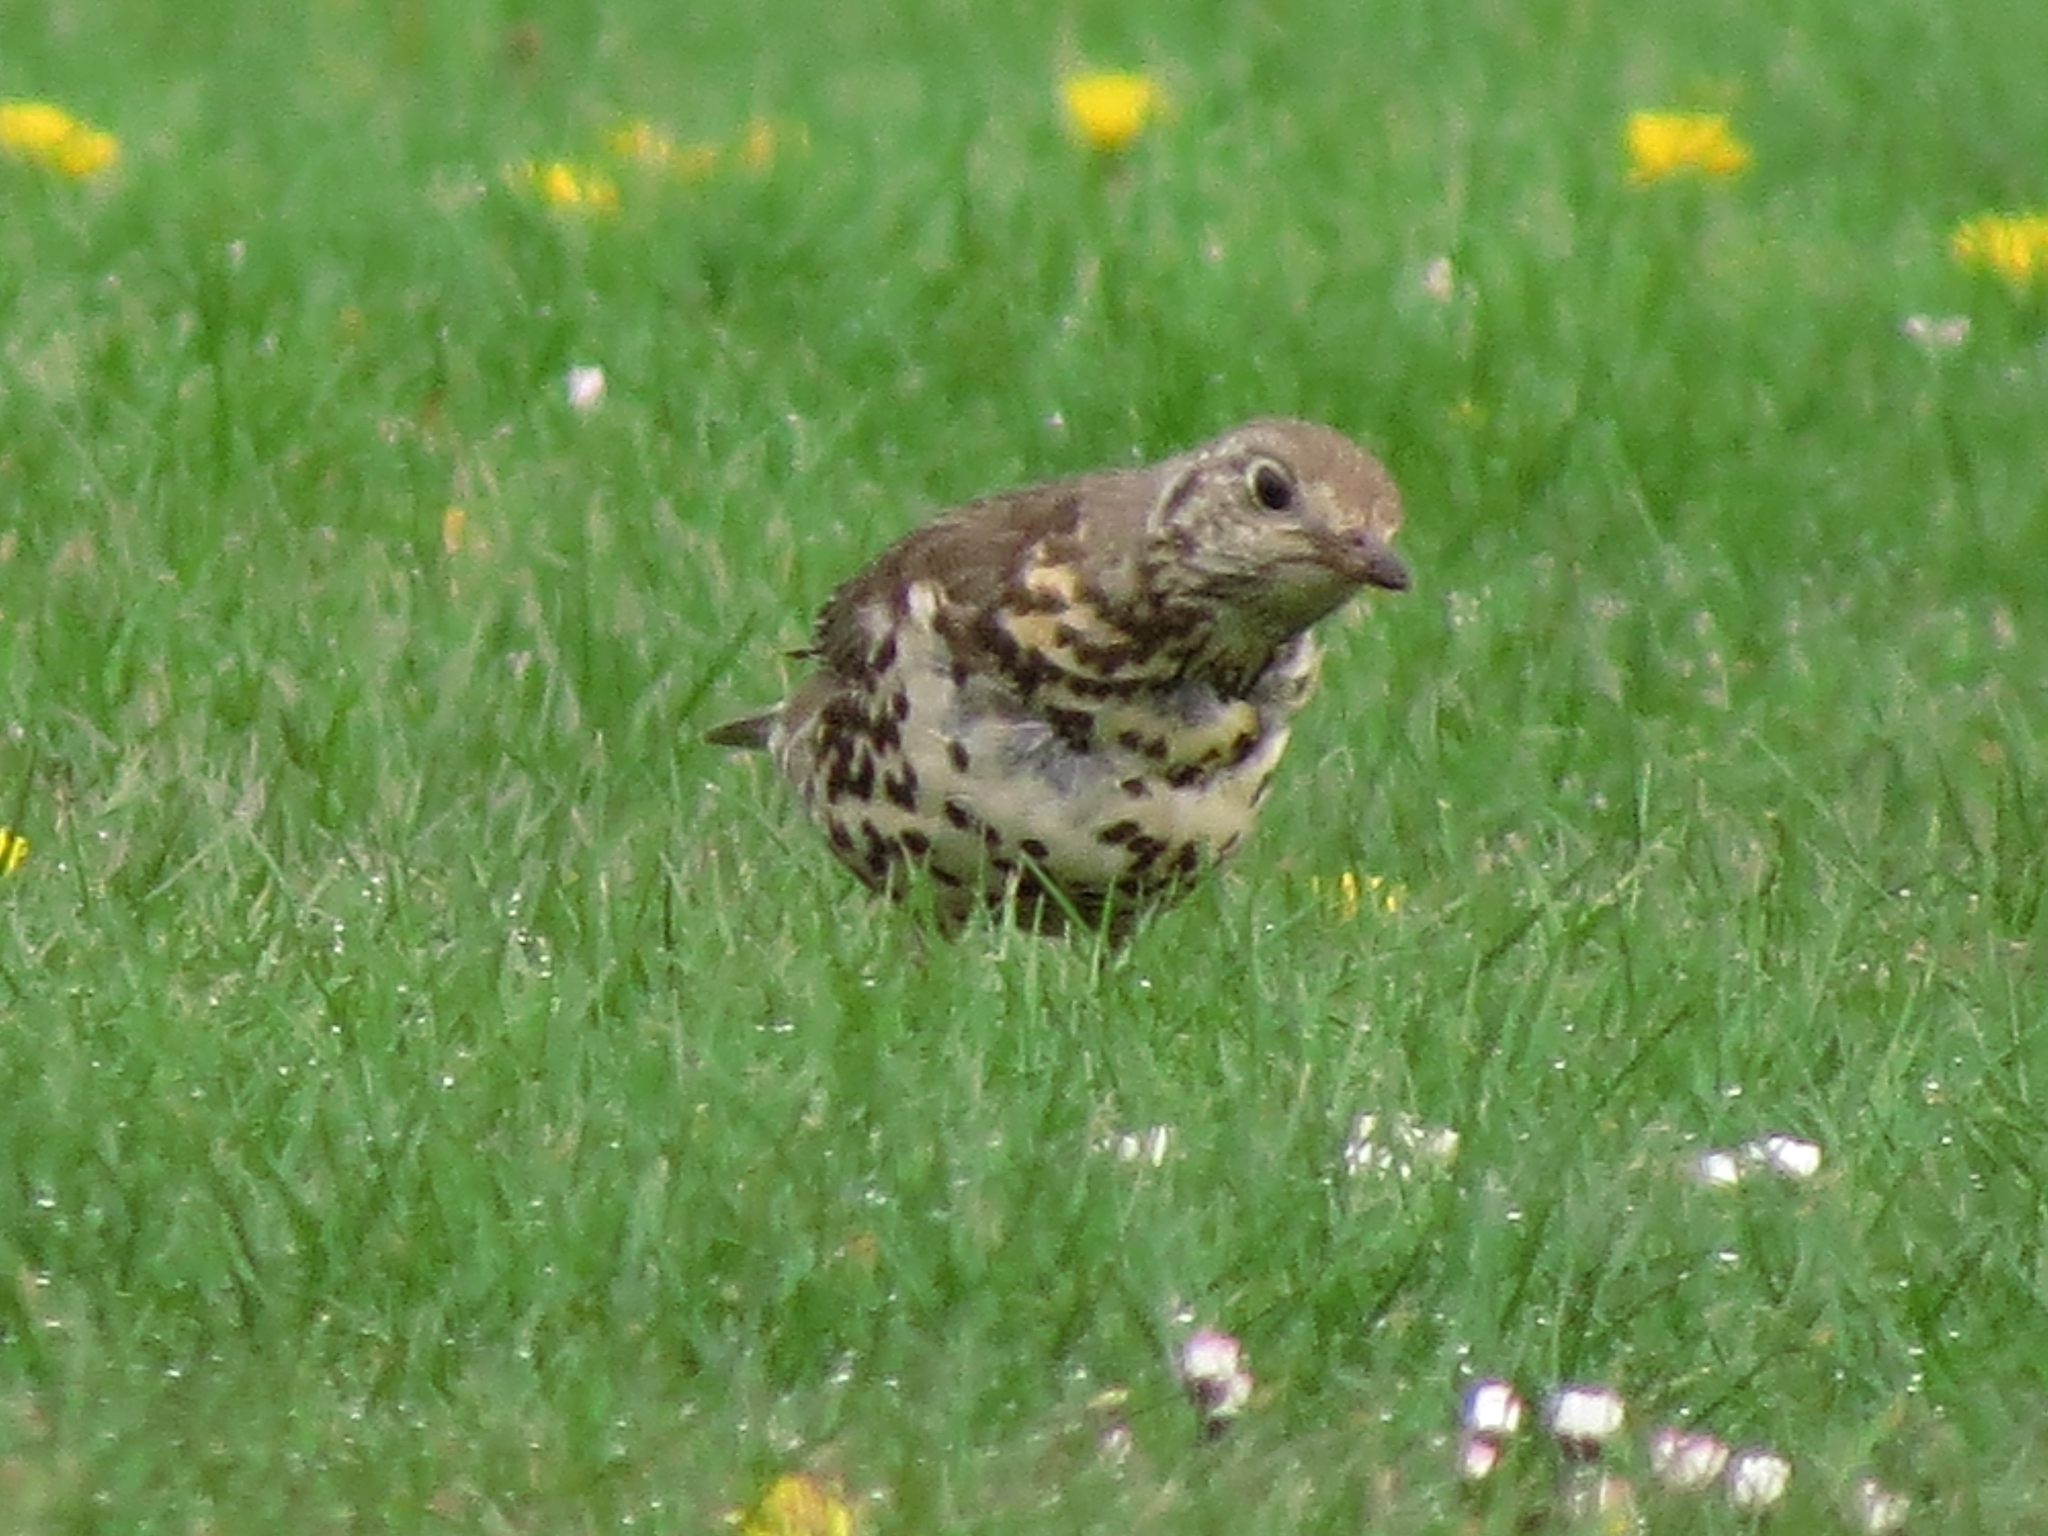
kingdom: Animalia
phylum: Chordata
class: Aves
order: Passeriformes
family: Turdidae
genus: Turdus
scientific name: Turdus viscivorus
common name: Mistle thrush
